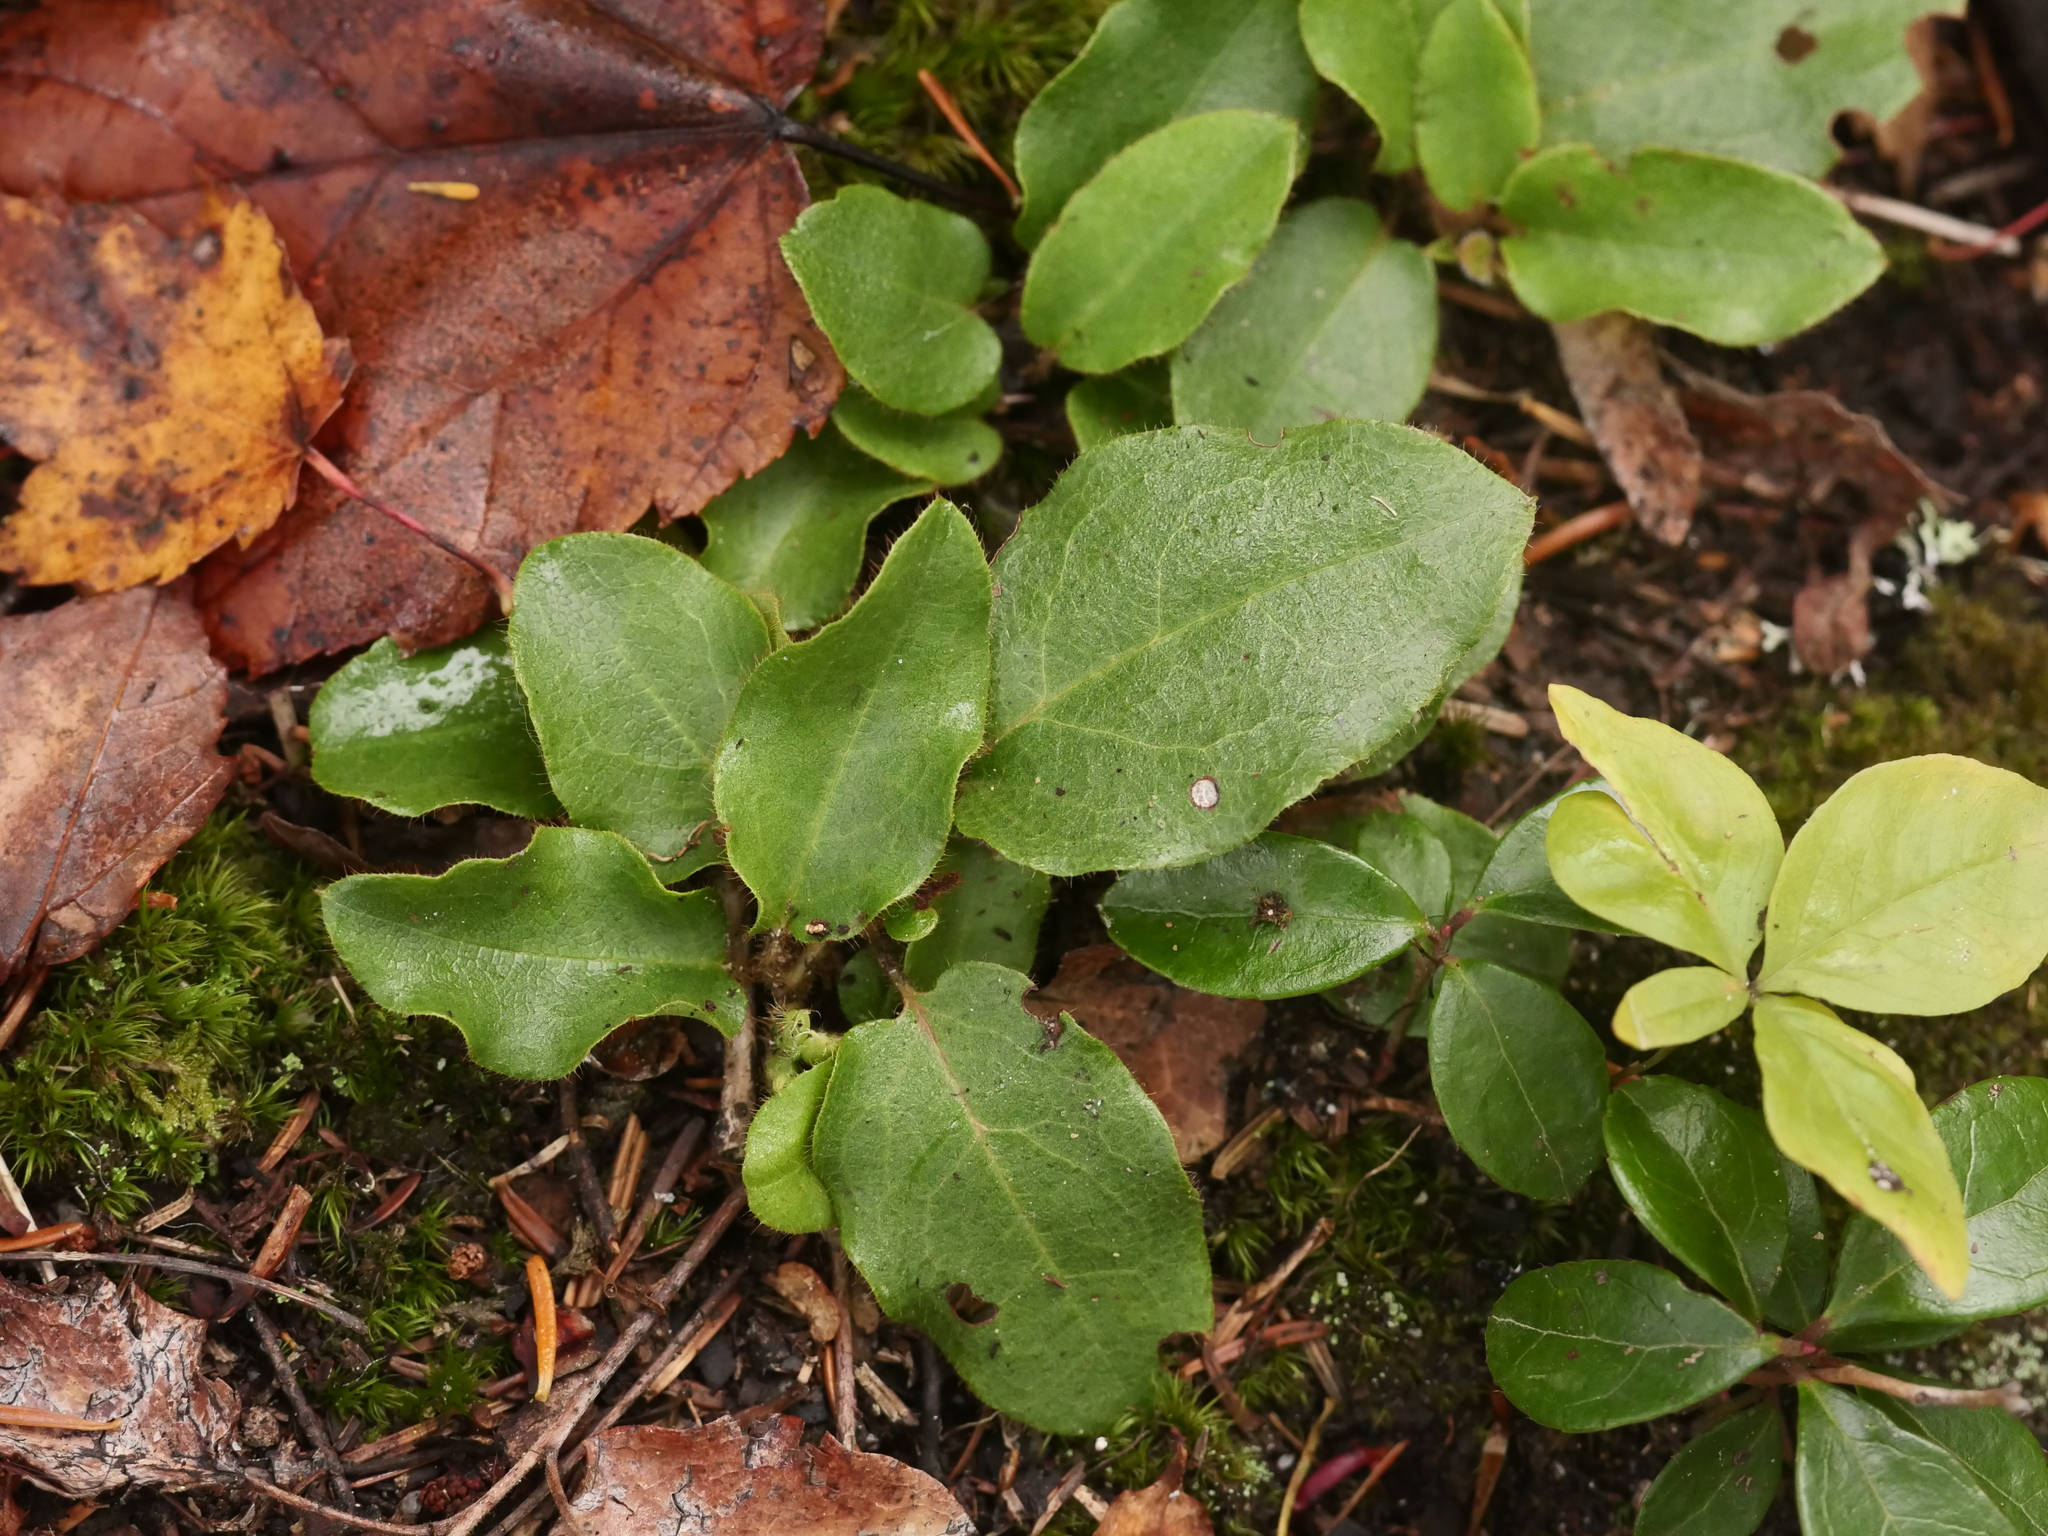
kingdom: Plantae
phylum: Tracheophyta
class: Magnoliopsida
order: Ericales
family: Ericaceae
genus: Epigaea
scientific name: Epigaea repens
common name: Gravelroot
